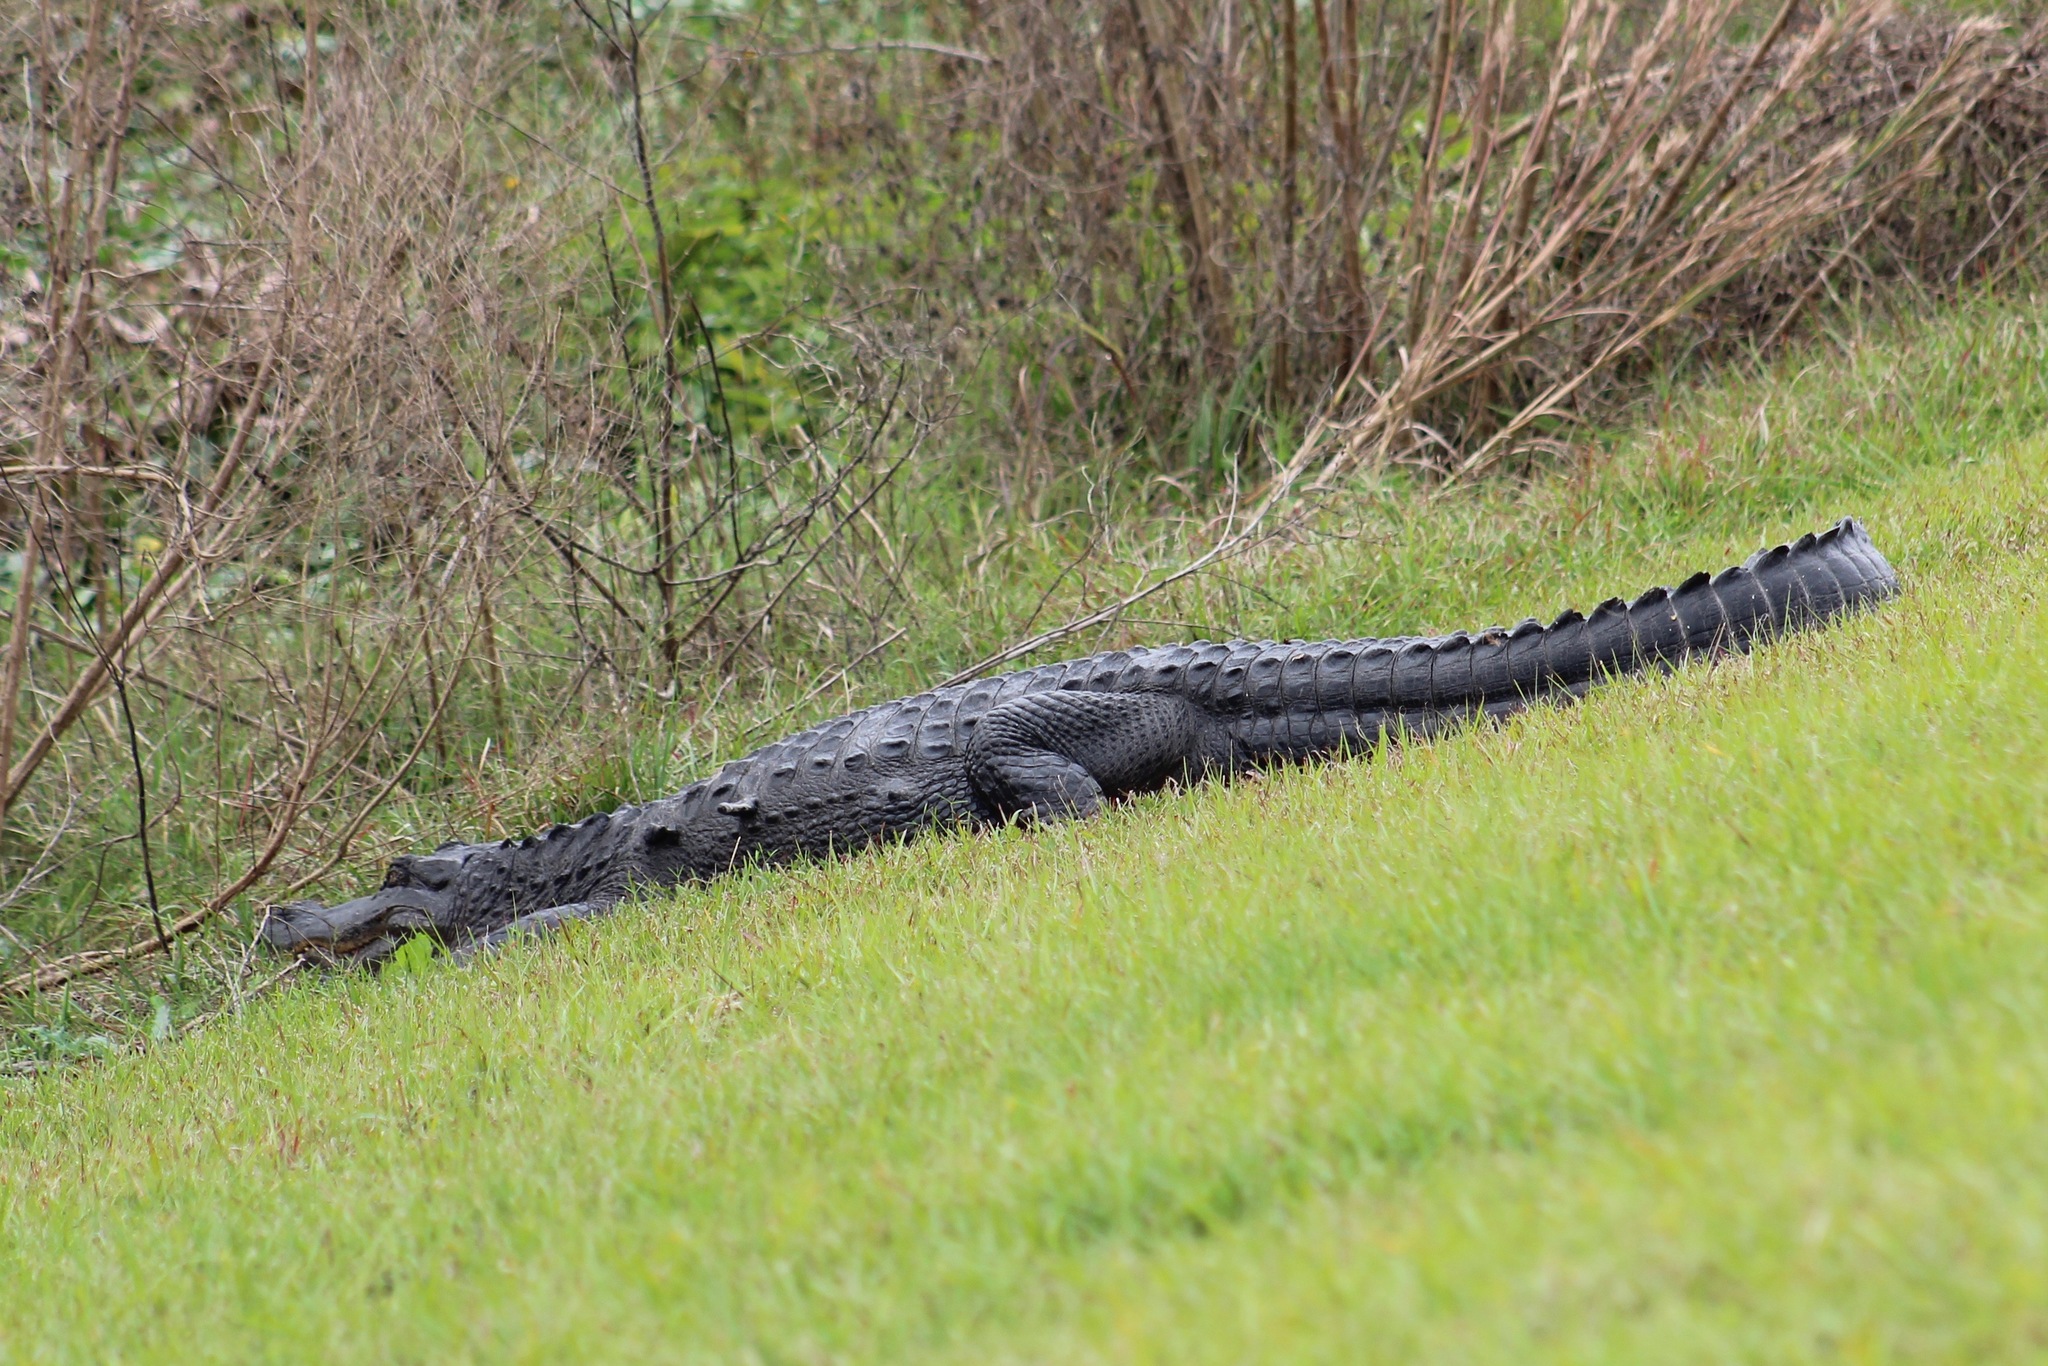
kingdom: Animalia
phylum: Chordata
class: Crocodylia
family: Alligatoridae
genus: Alligator
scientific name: Alligator mississippiensis
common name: American alligator
